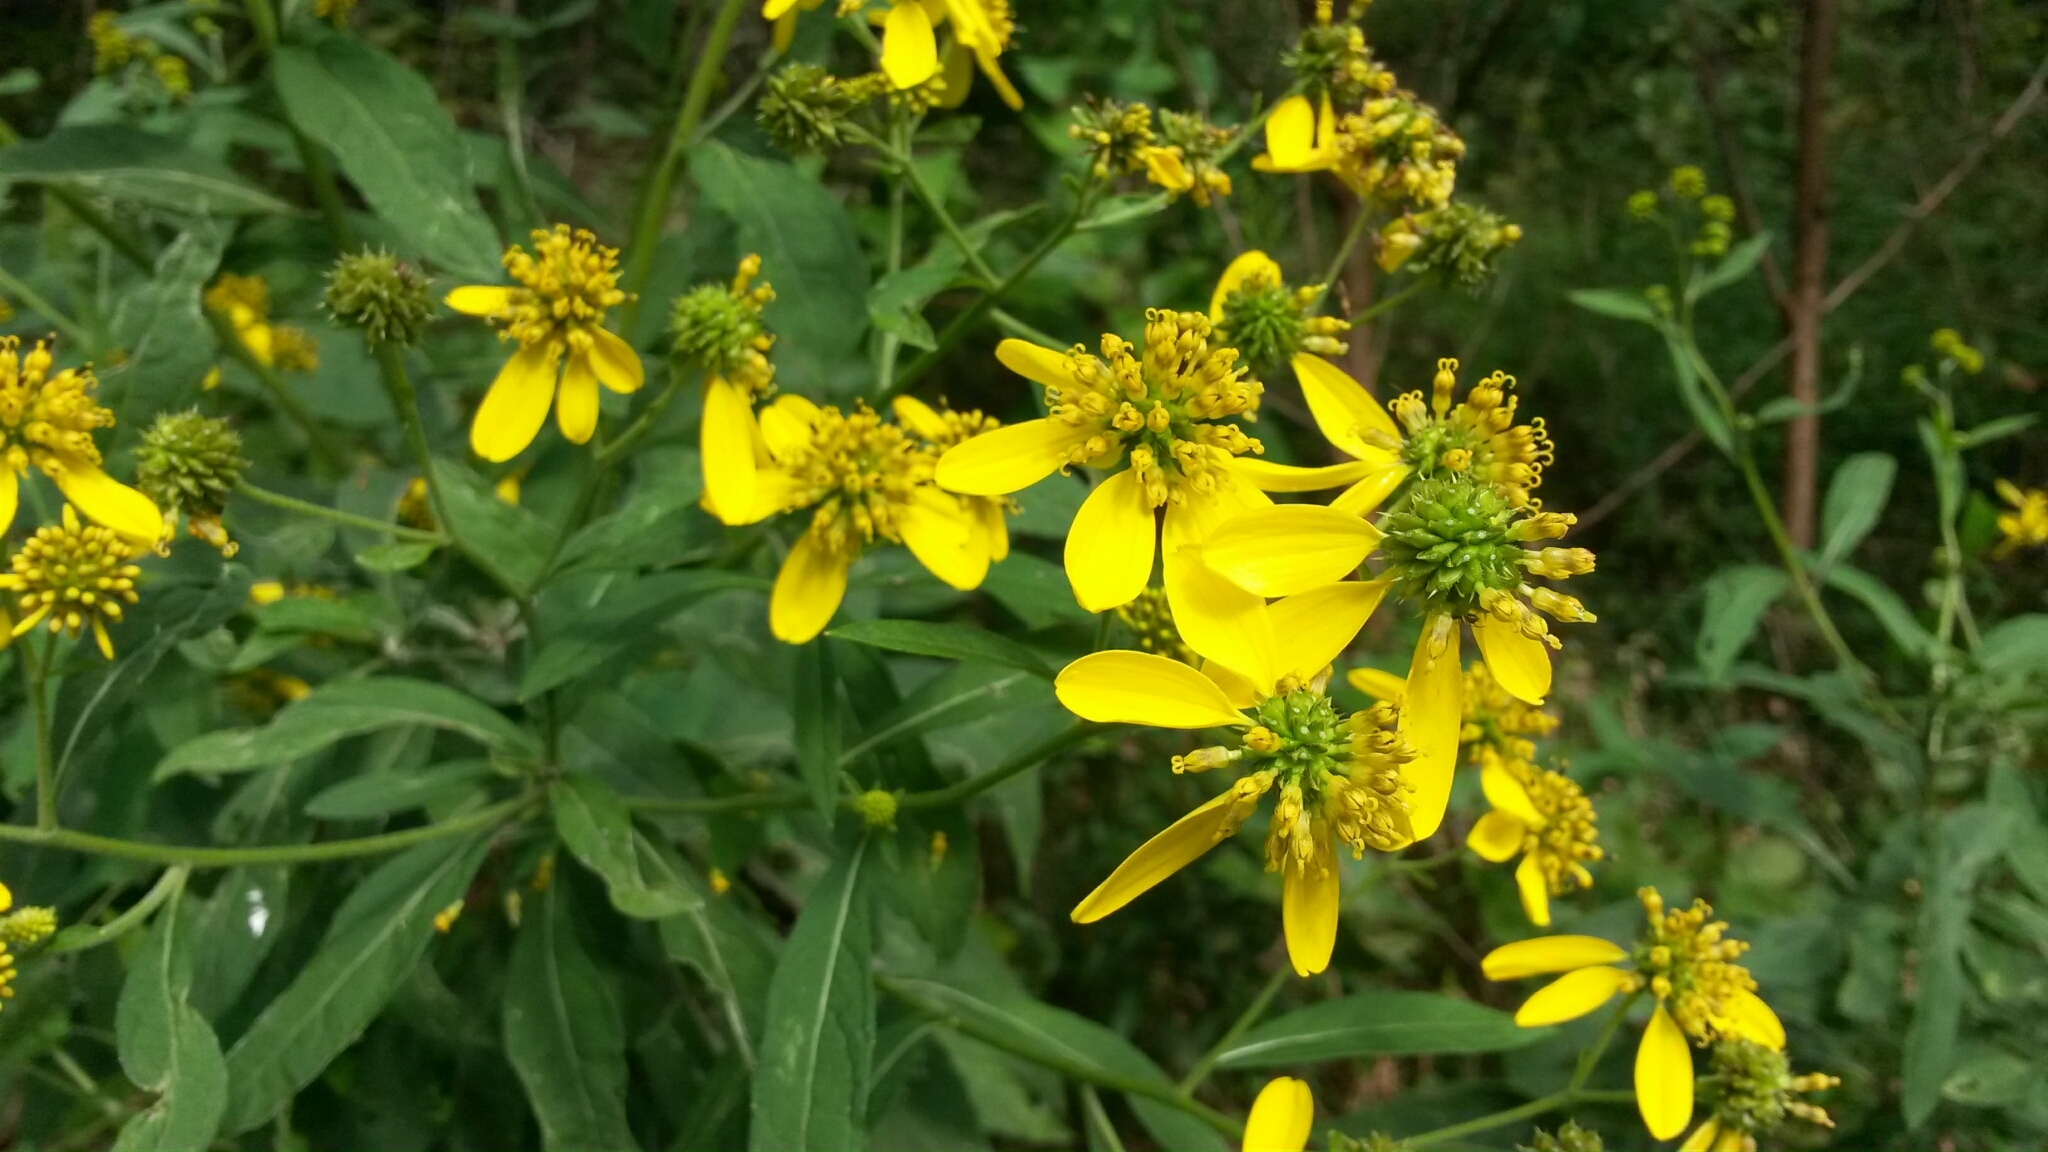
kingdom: Plantae
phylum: Tracheophyta
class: Magnoliopsida
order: Asterales
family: Asteraceae
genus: Verbesina
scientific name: Verbesina alternifolia
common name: Wingstem
